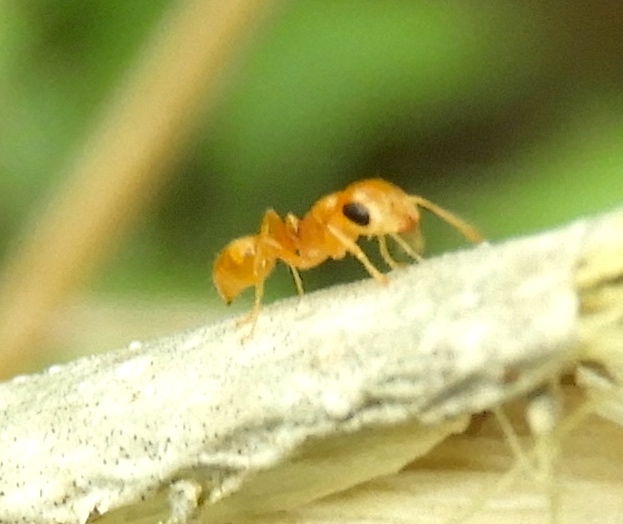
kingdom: Animalia
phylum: Arthropoda
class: Insecta
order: Hymenoptera
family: Formicidae
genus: Pseudomyrmex
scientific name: Pseudomyrmex pallidus
